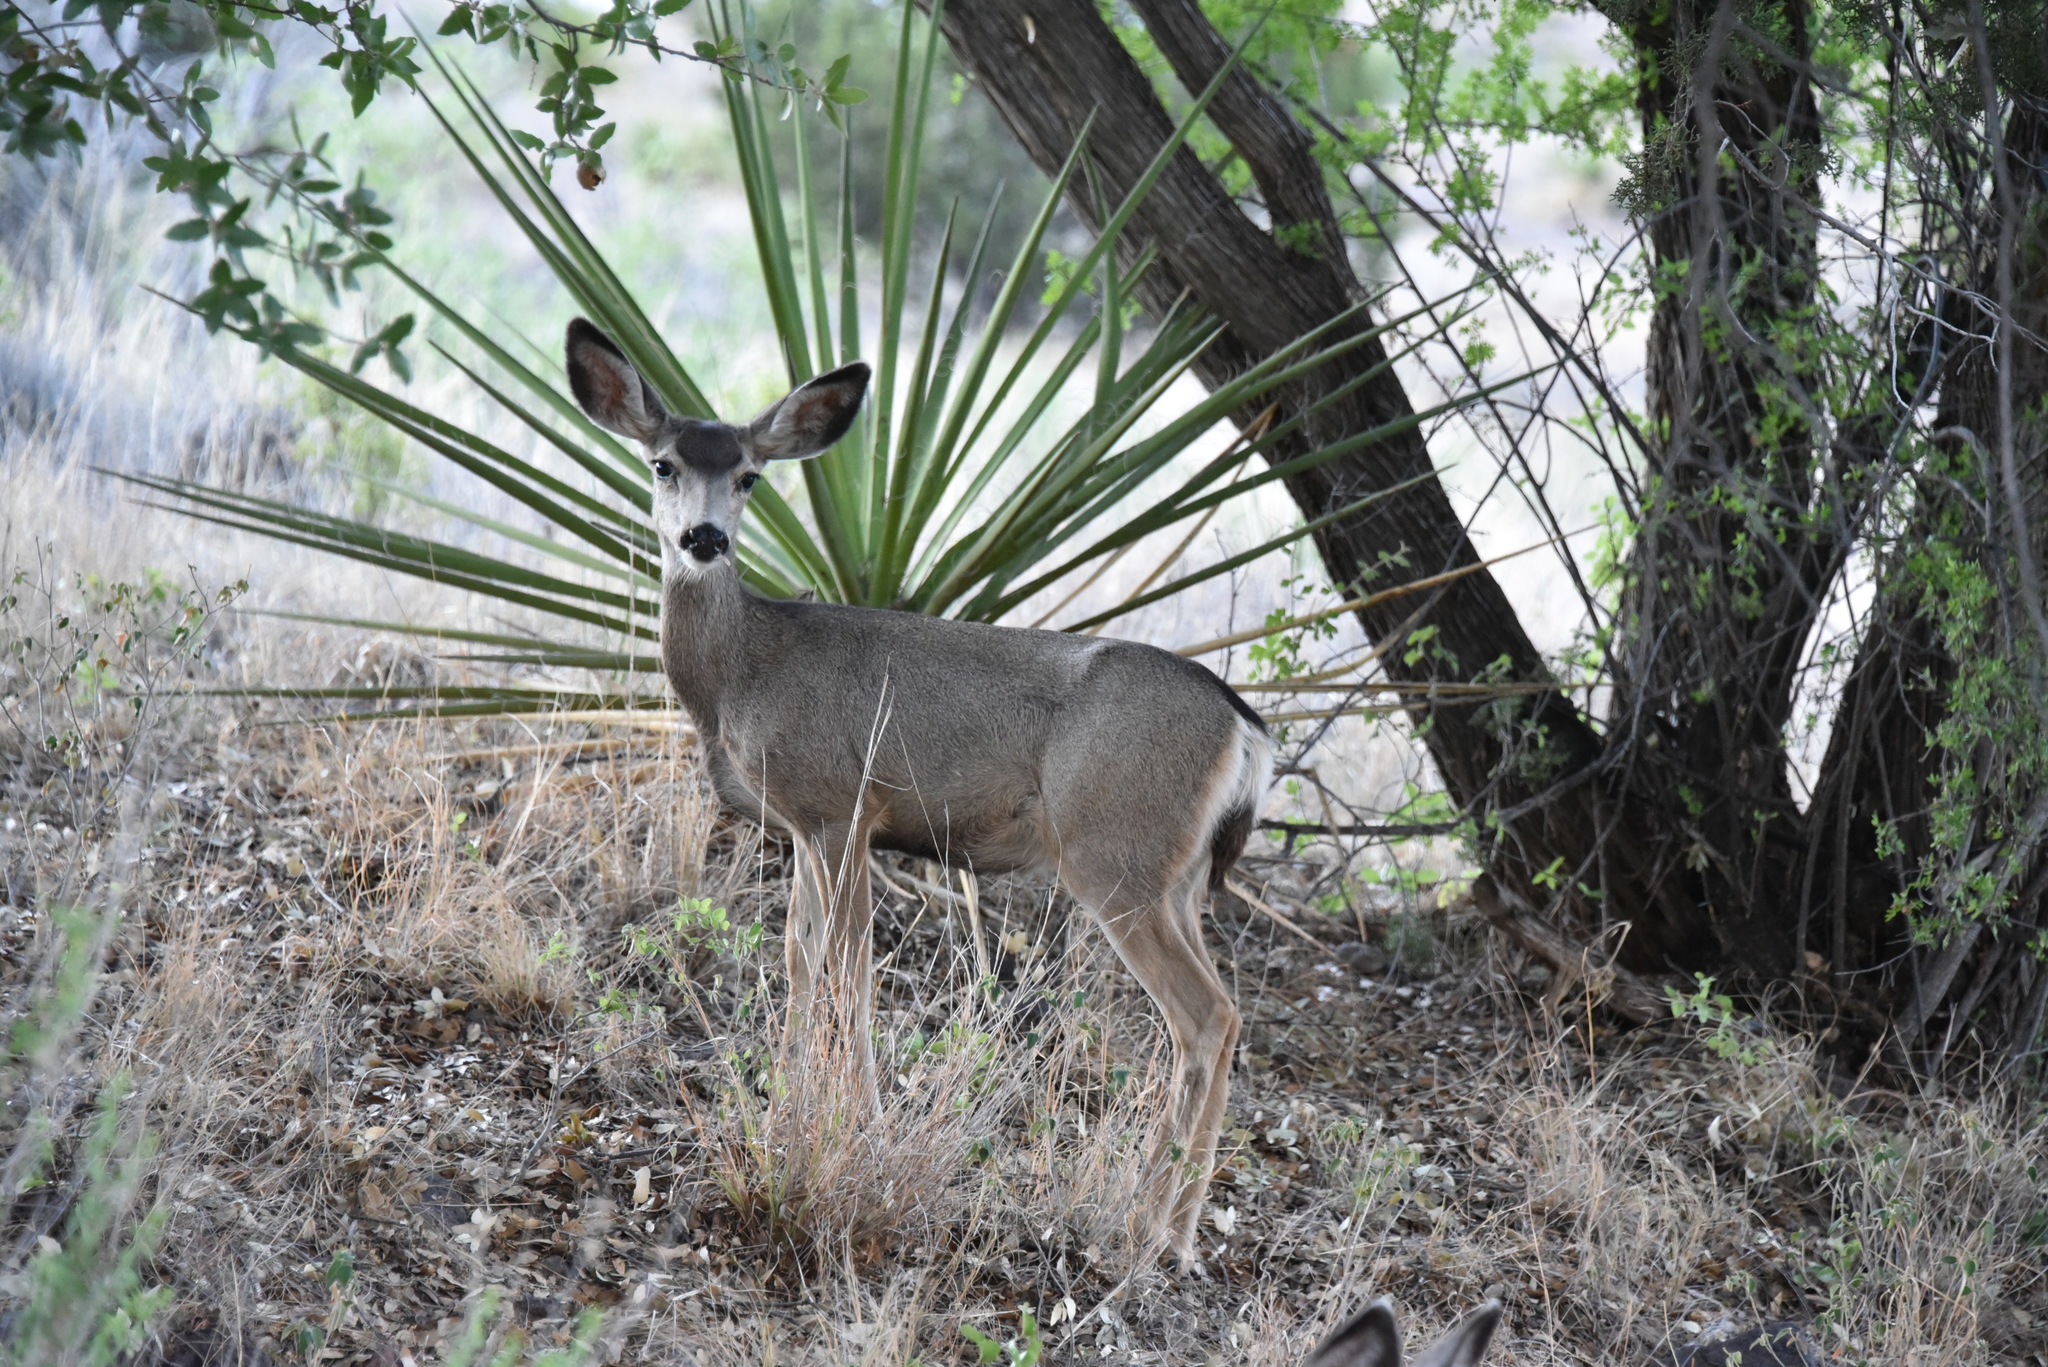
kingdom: Animalia
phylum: Chordata
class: Mammalia
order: Artiodactyla
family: Cervidae
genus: Odocoileus
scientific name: Odocoileus hemionus
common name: Mule deer
